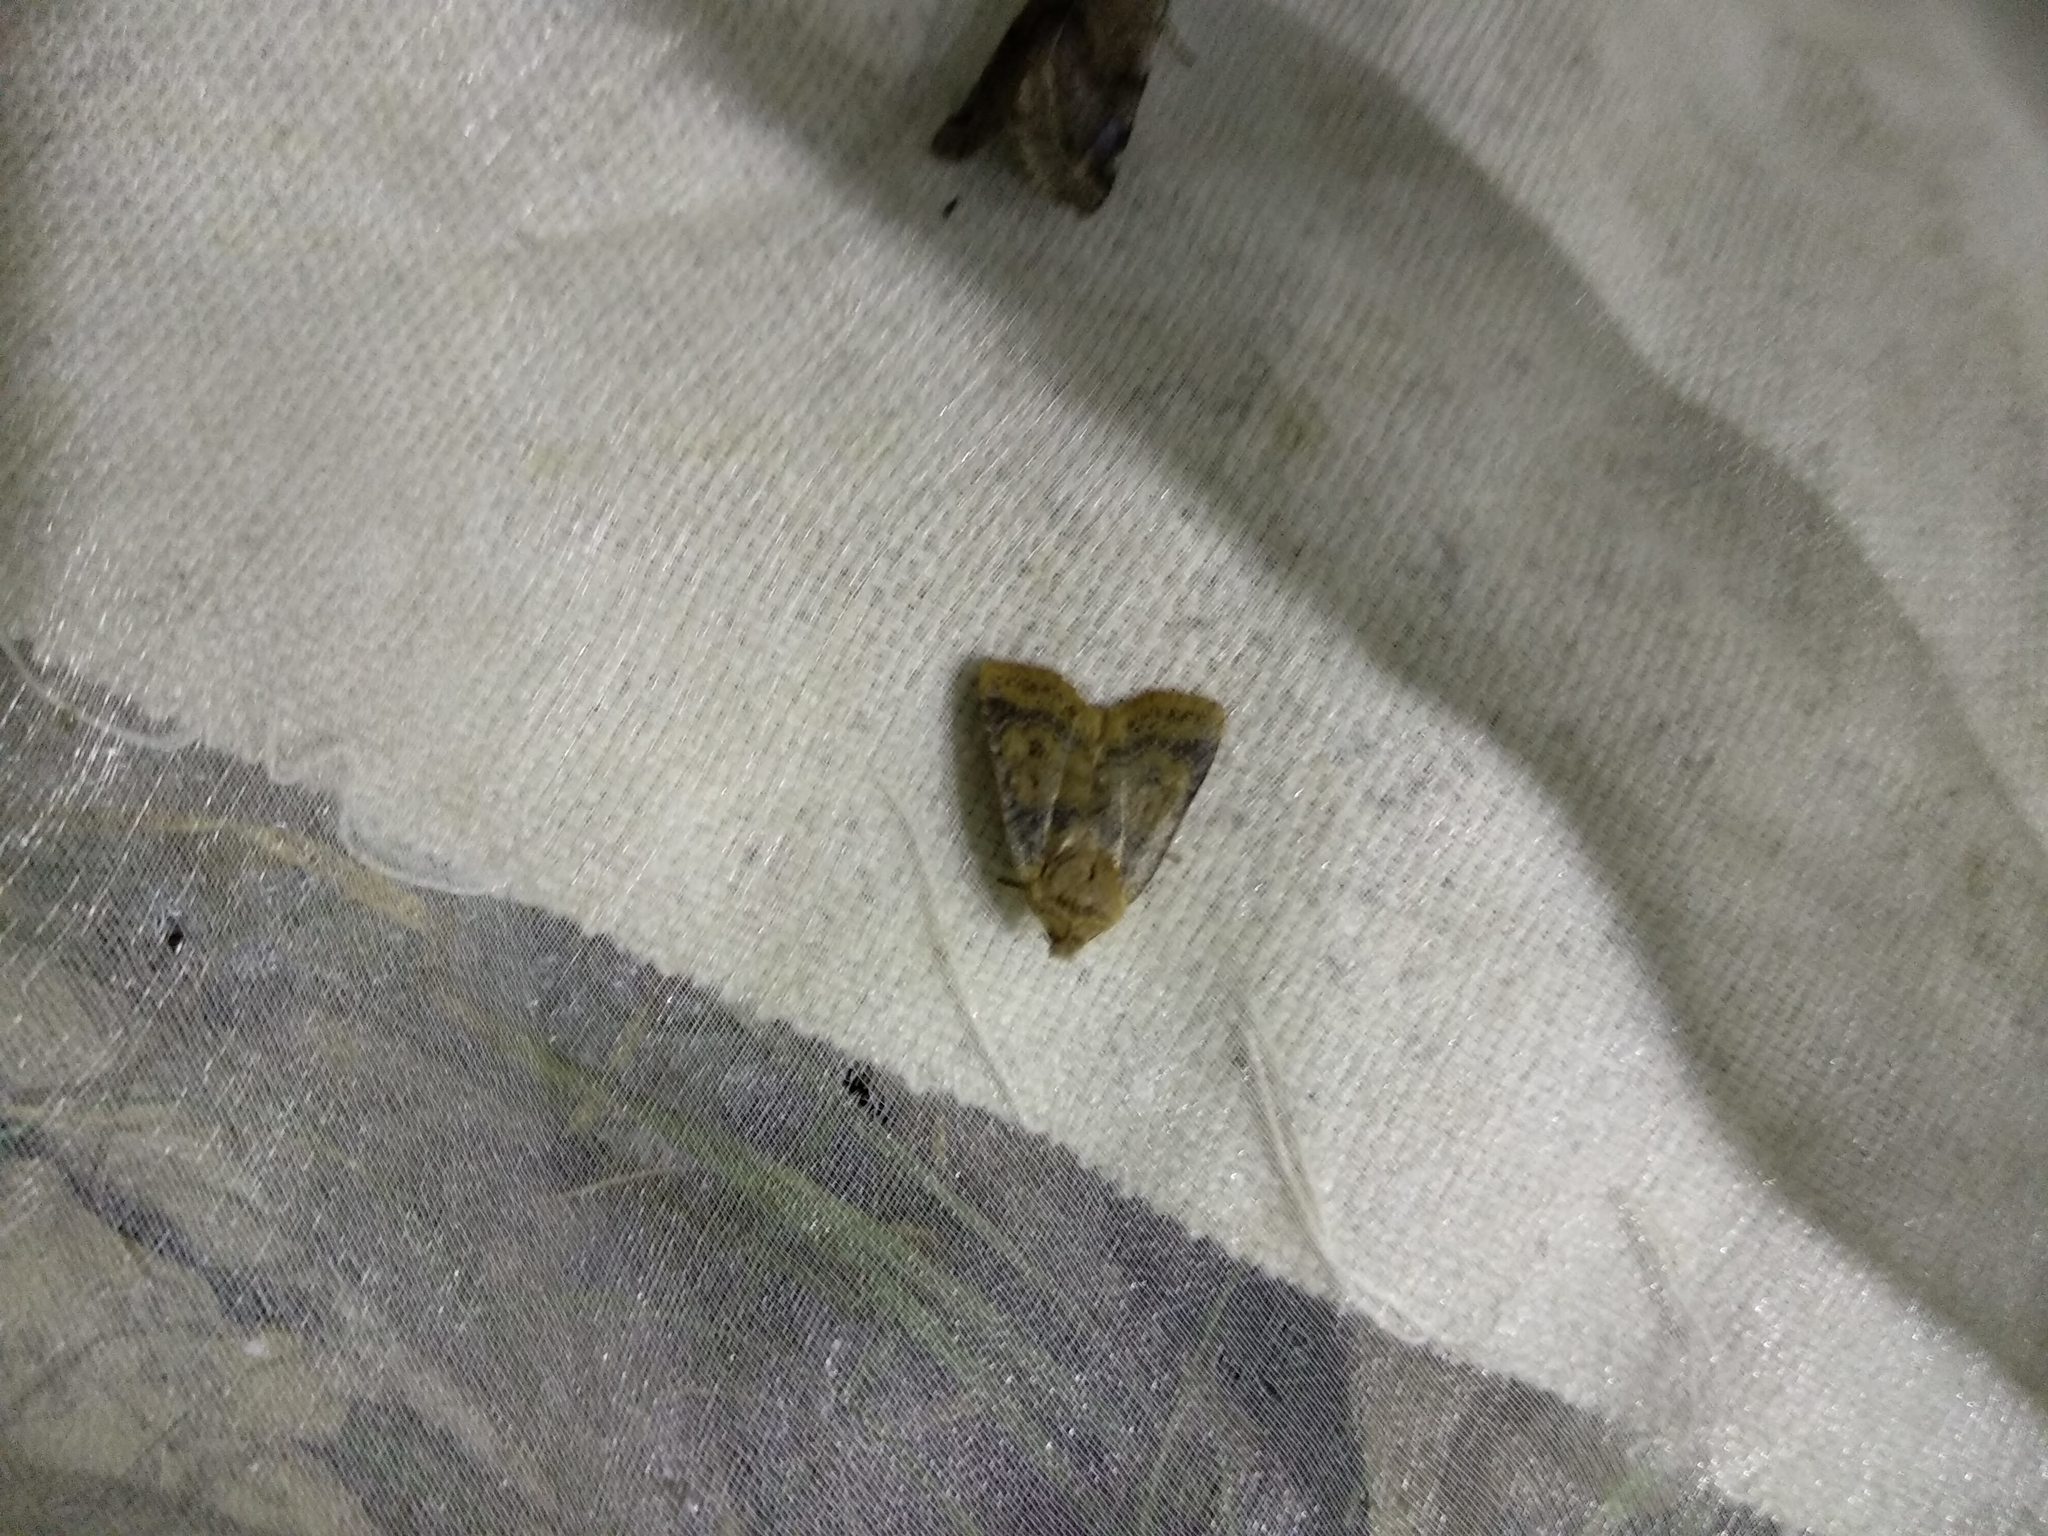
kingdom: Animalia
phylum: Arthropoda
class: Insecta
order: Lepidoptera
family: Noctuidae
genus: Conistra
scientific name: Conistra vaccinii
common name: Chestnut
